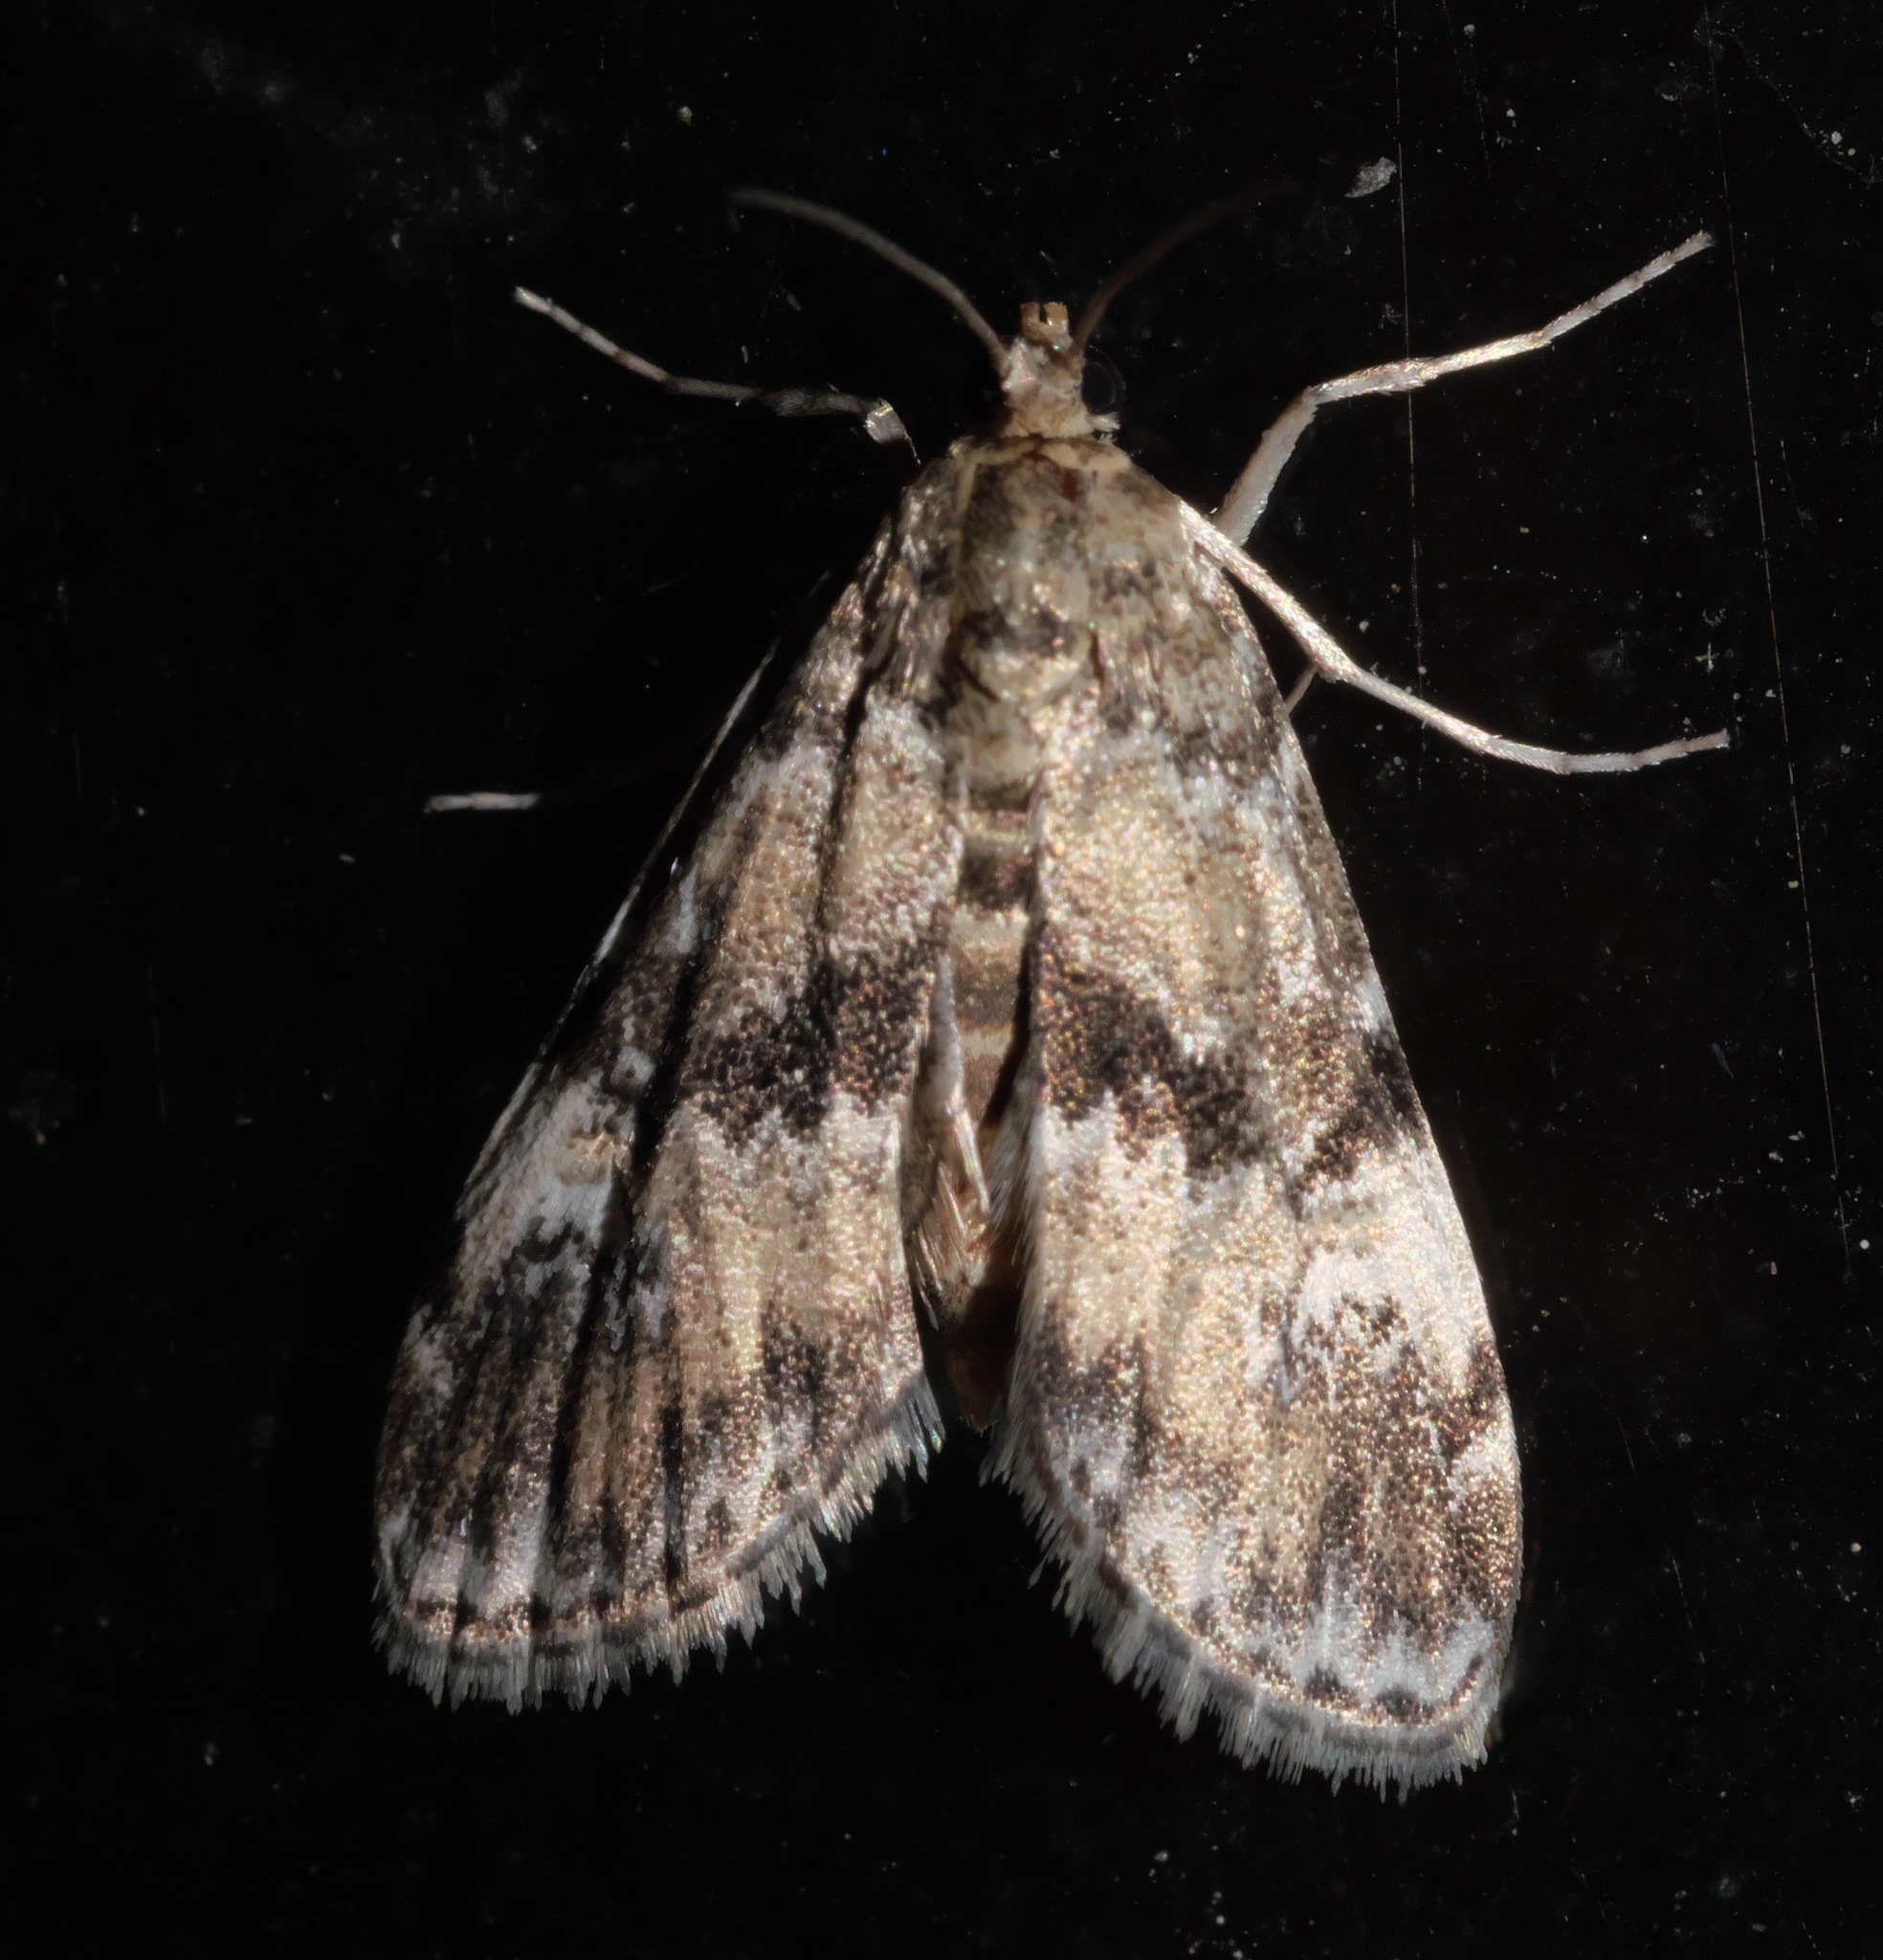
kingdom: Animalia
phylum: Arthropoda
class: Insecta
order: Lepidoptera
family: Crambidae
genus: Elophila
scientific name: Elophila obliteralis
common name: Waterlily leafcutter moth
